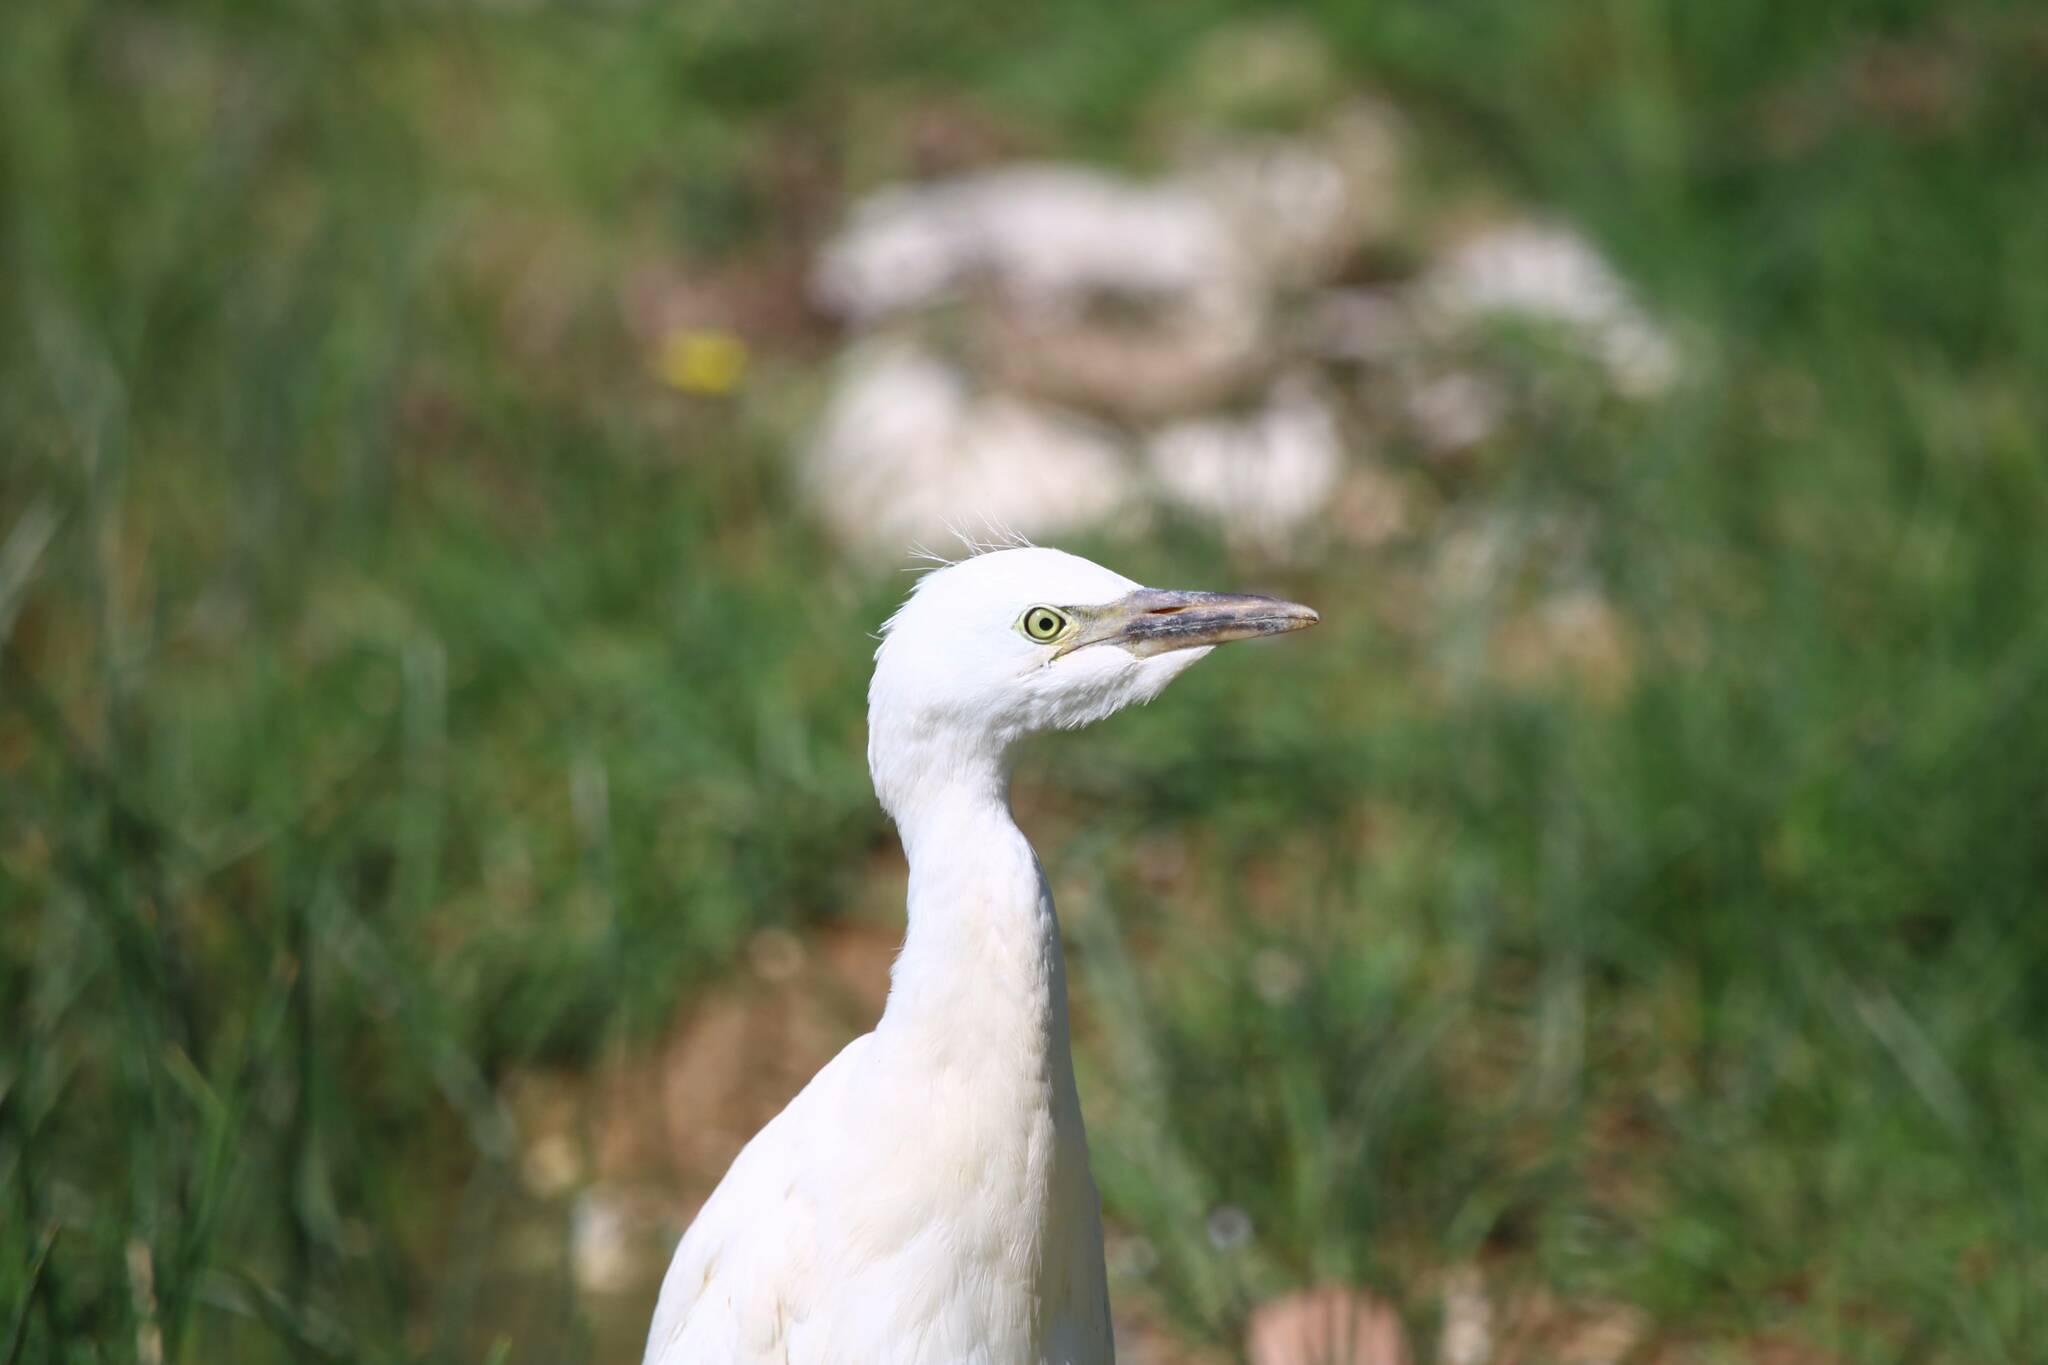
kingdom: Animalia
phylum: Chordata
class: Aves
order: Pelecaniformes
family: Ardeidae
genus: Bubulcus
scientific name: Bubulcus ibis
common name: Cattle egret
